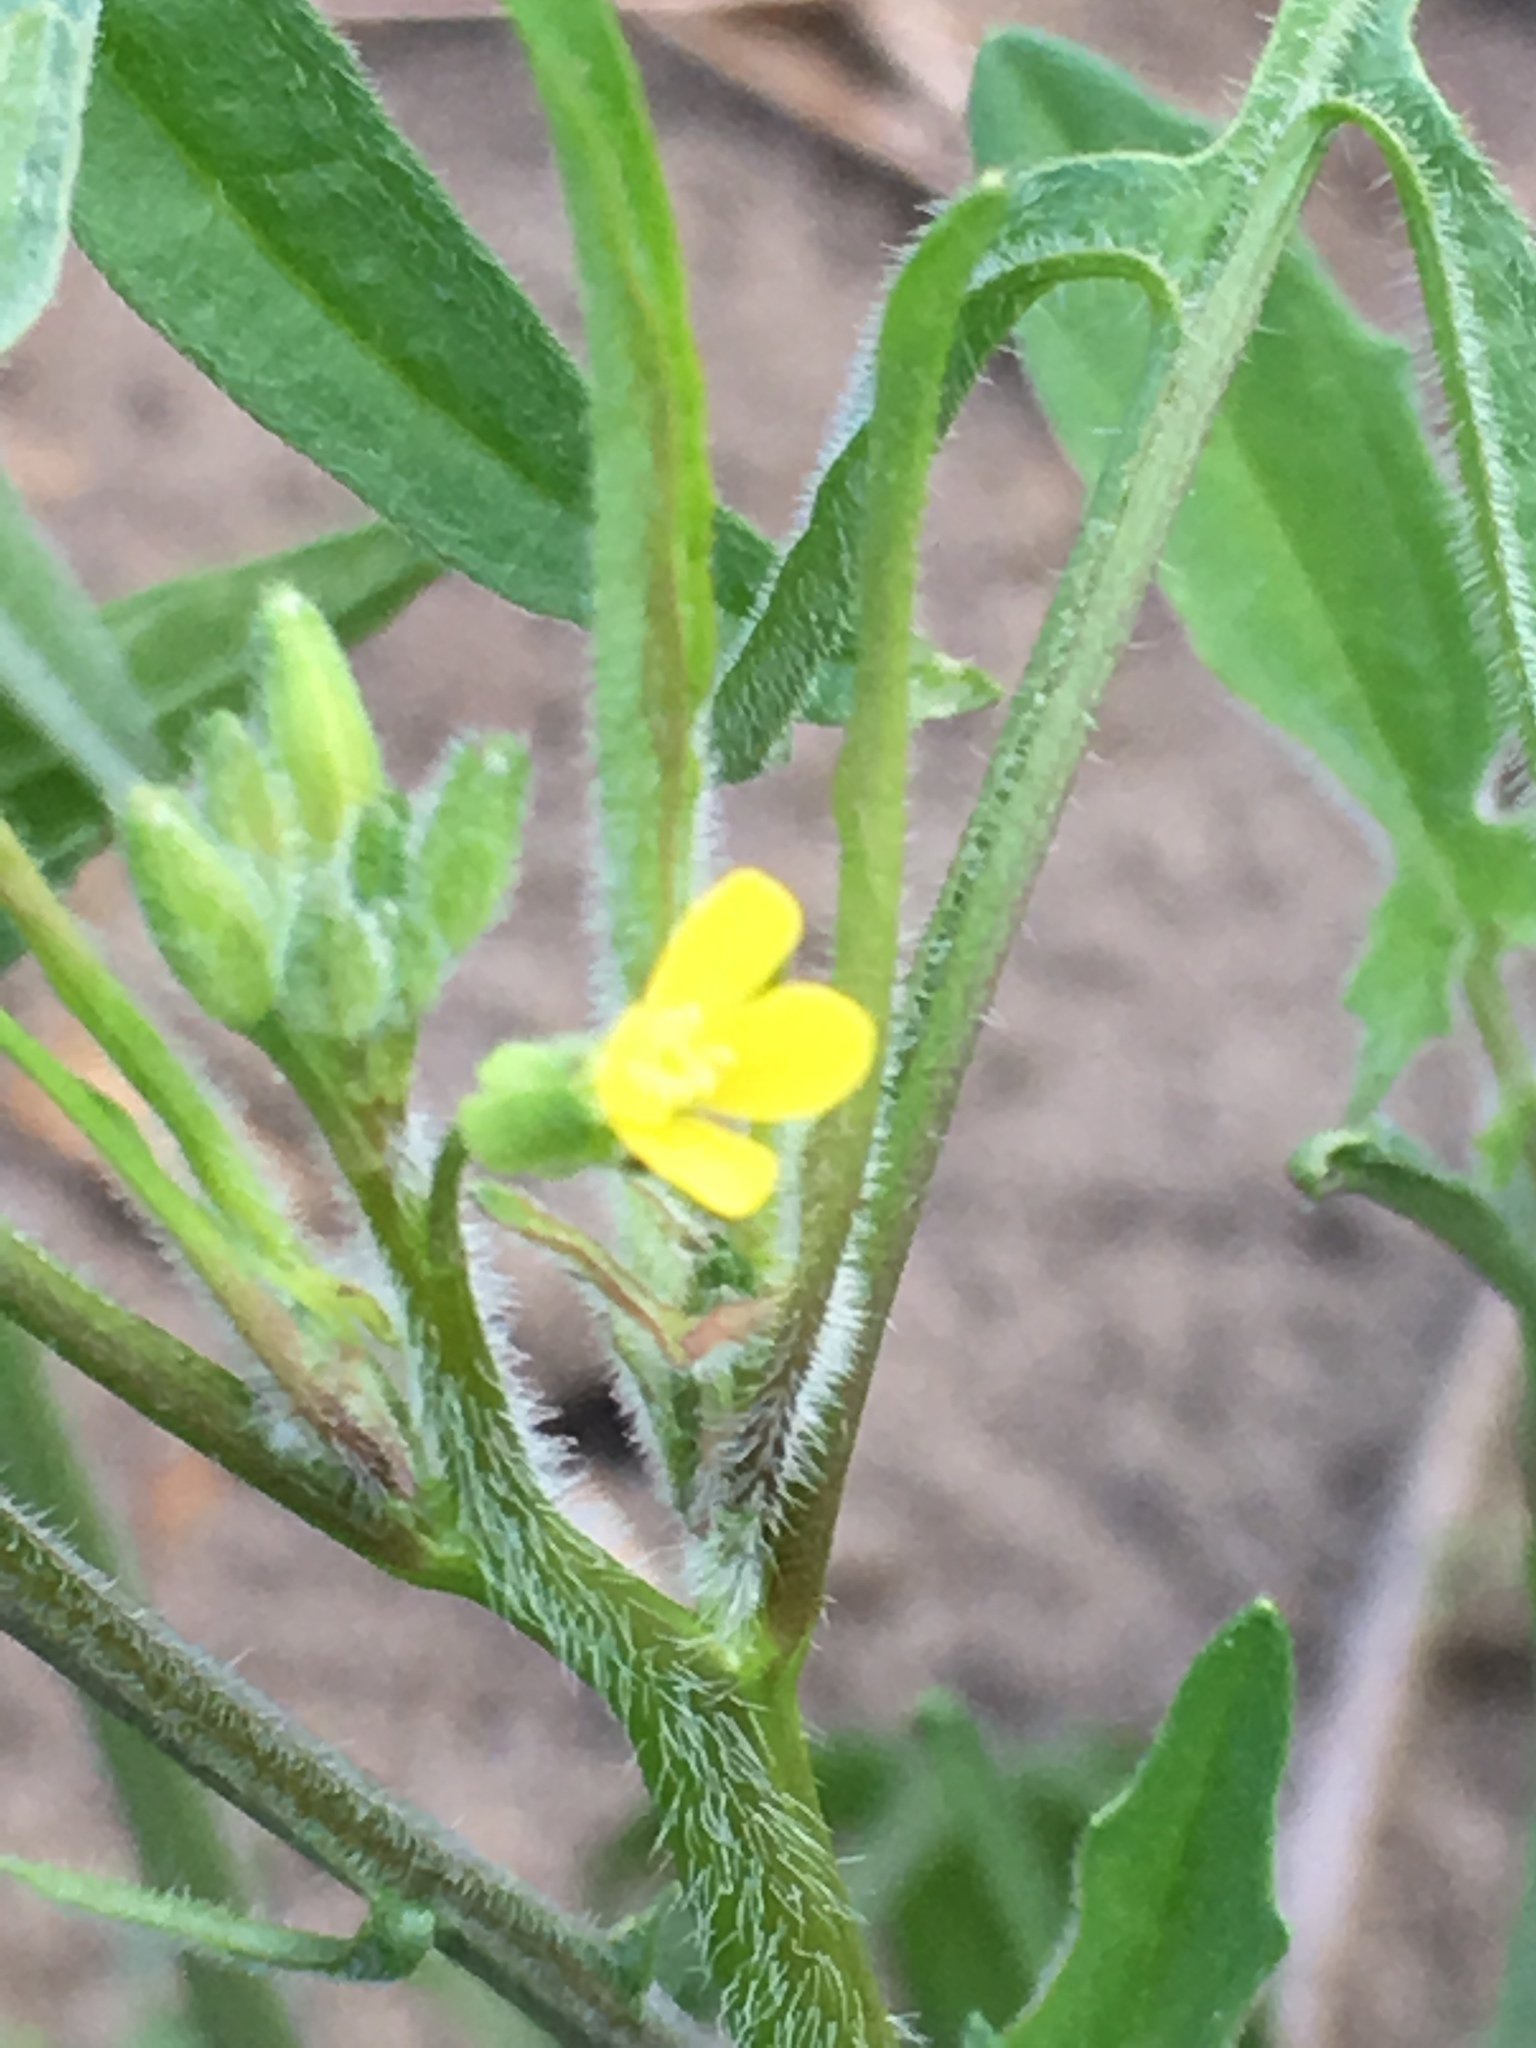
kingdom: Plantae
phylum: Tracheophyta
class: Magnoliopsida
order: Brassicales
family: Brassicaceae
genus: Sisymbrium
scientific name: Sisymbrium orientale
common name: Eastern rocket
